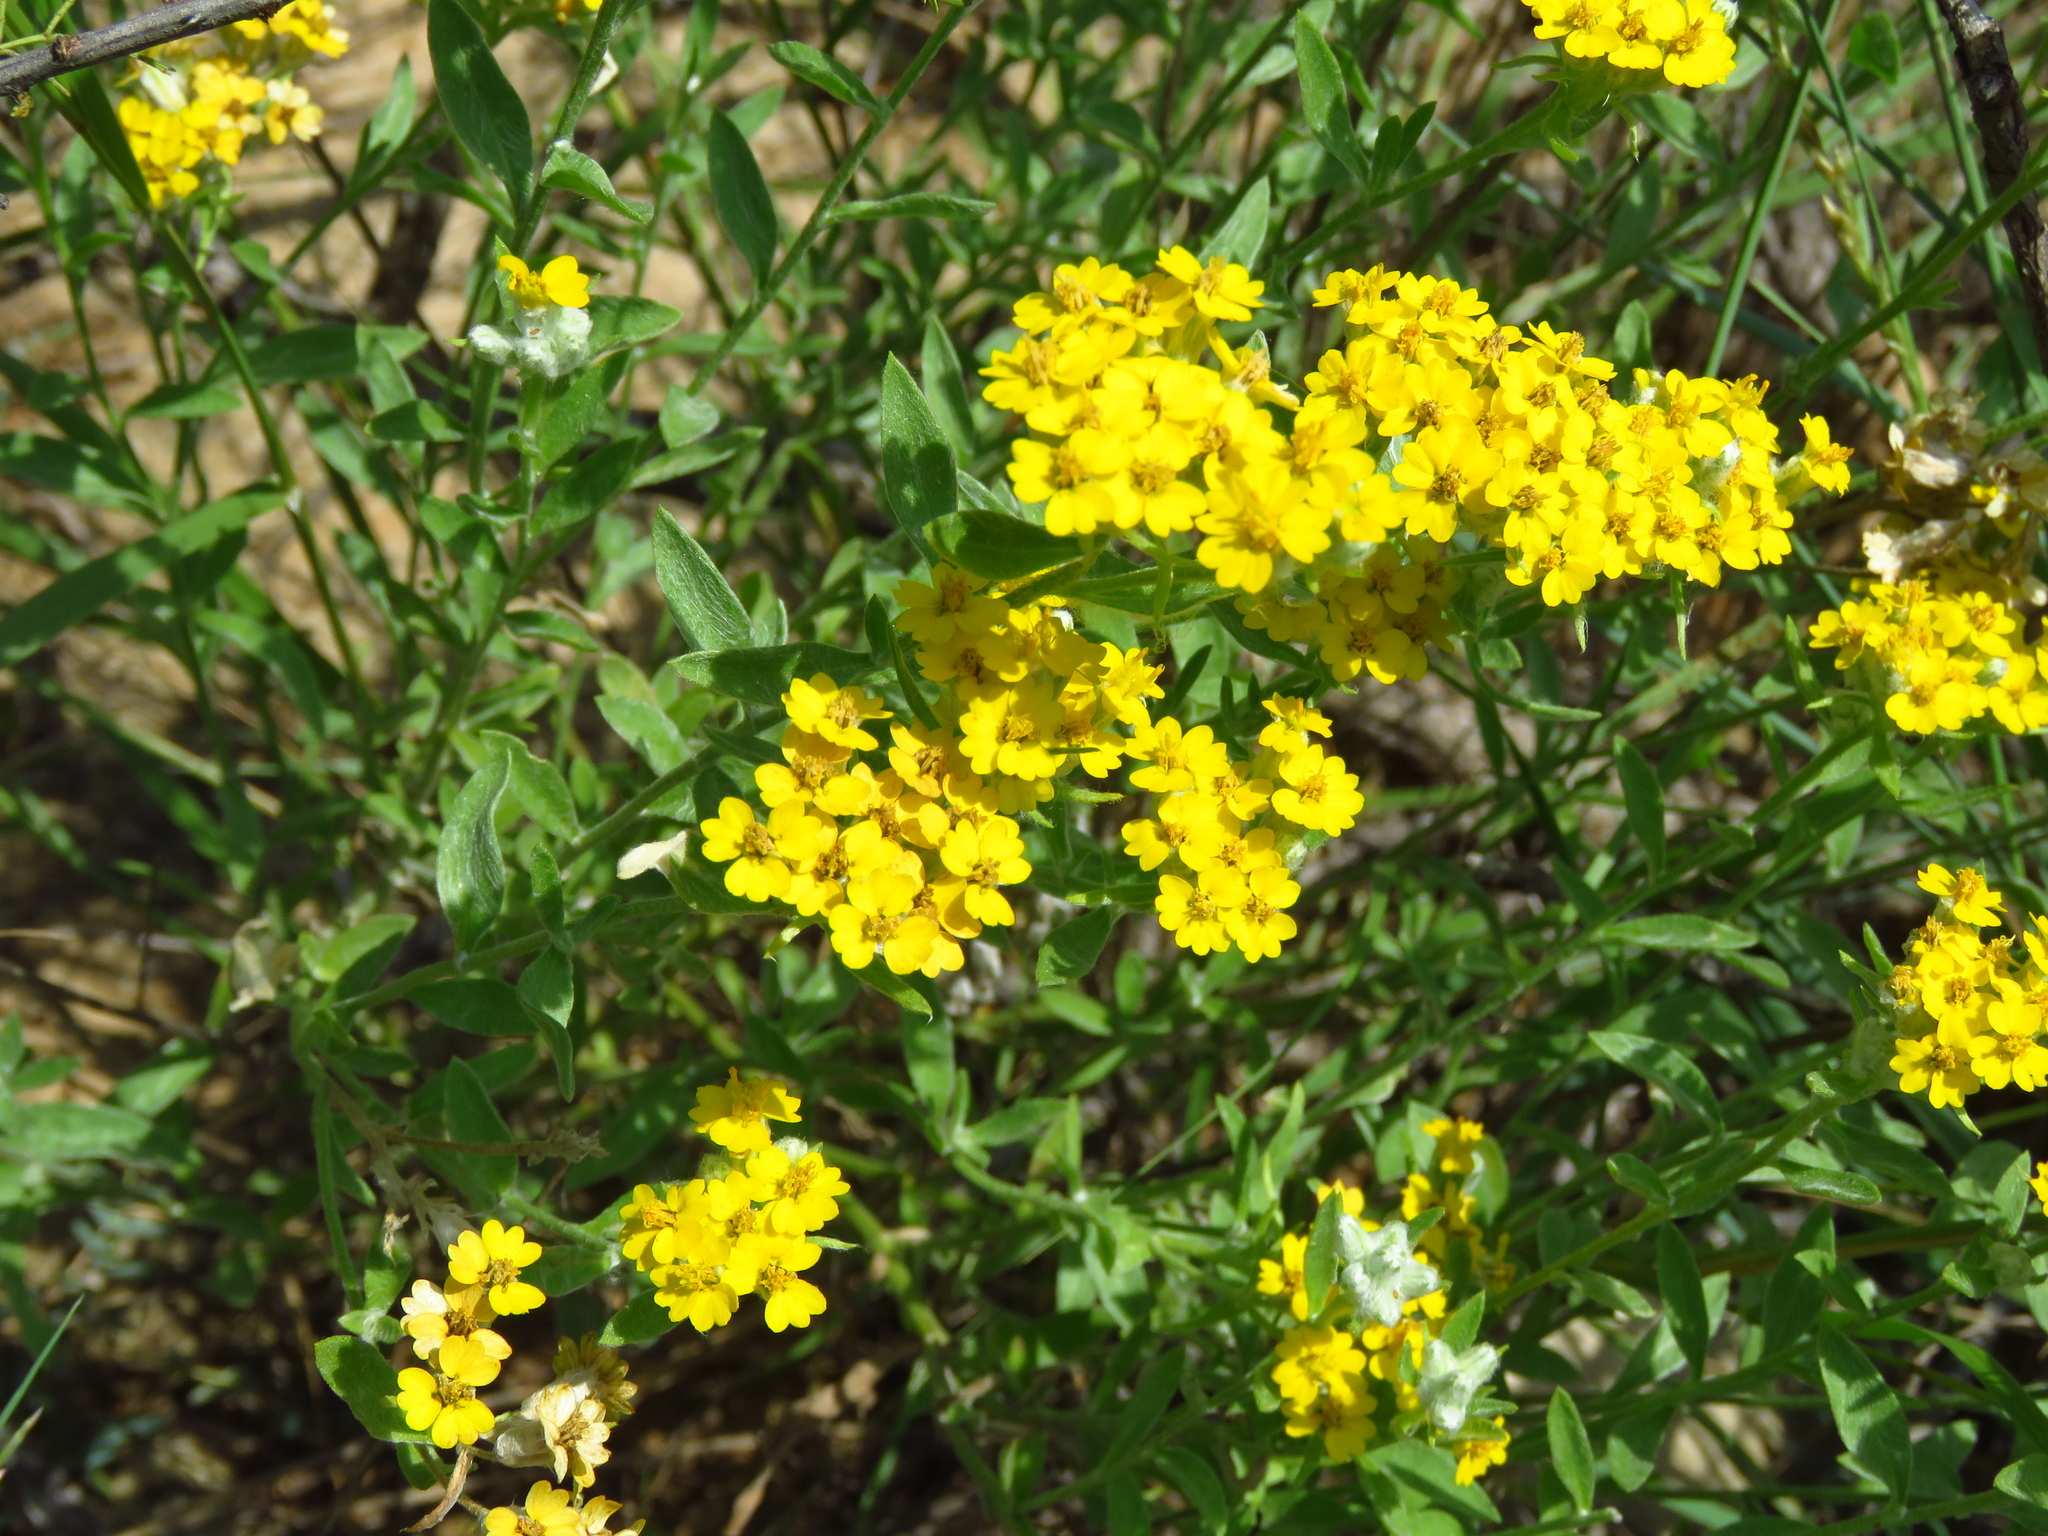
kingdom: Plantae
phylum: Tracheophyta
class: Magnoliopsida
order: Asterales
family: Asteraceae
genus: Psilostrophe
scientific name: Psilostrophe tagetina
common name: Marigold paper-flower
